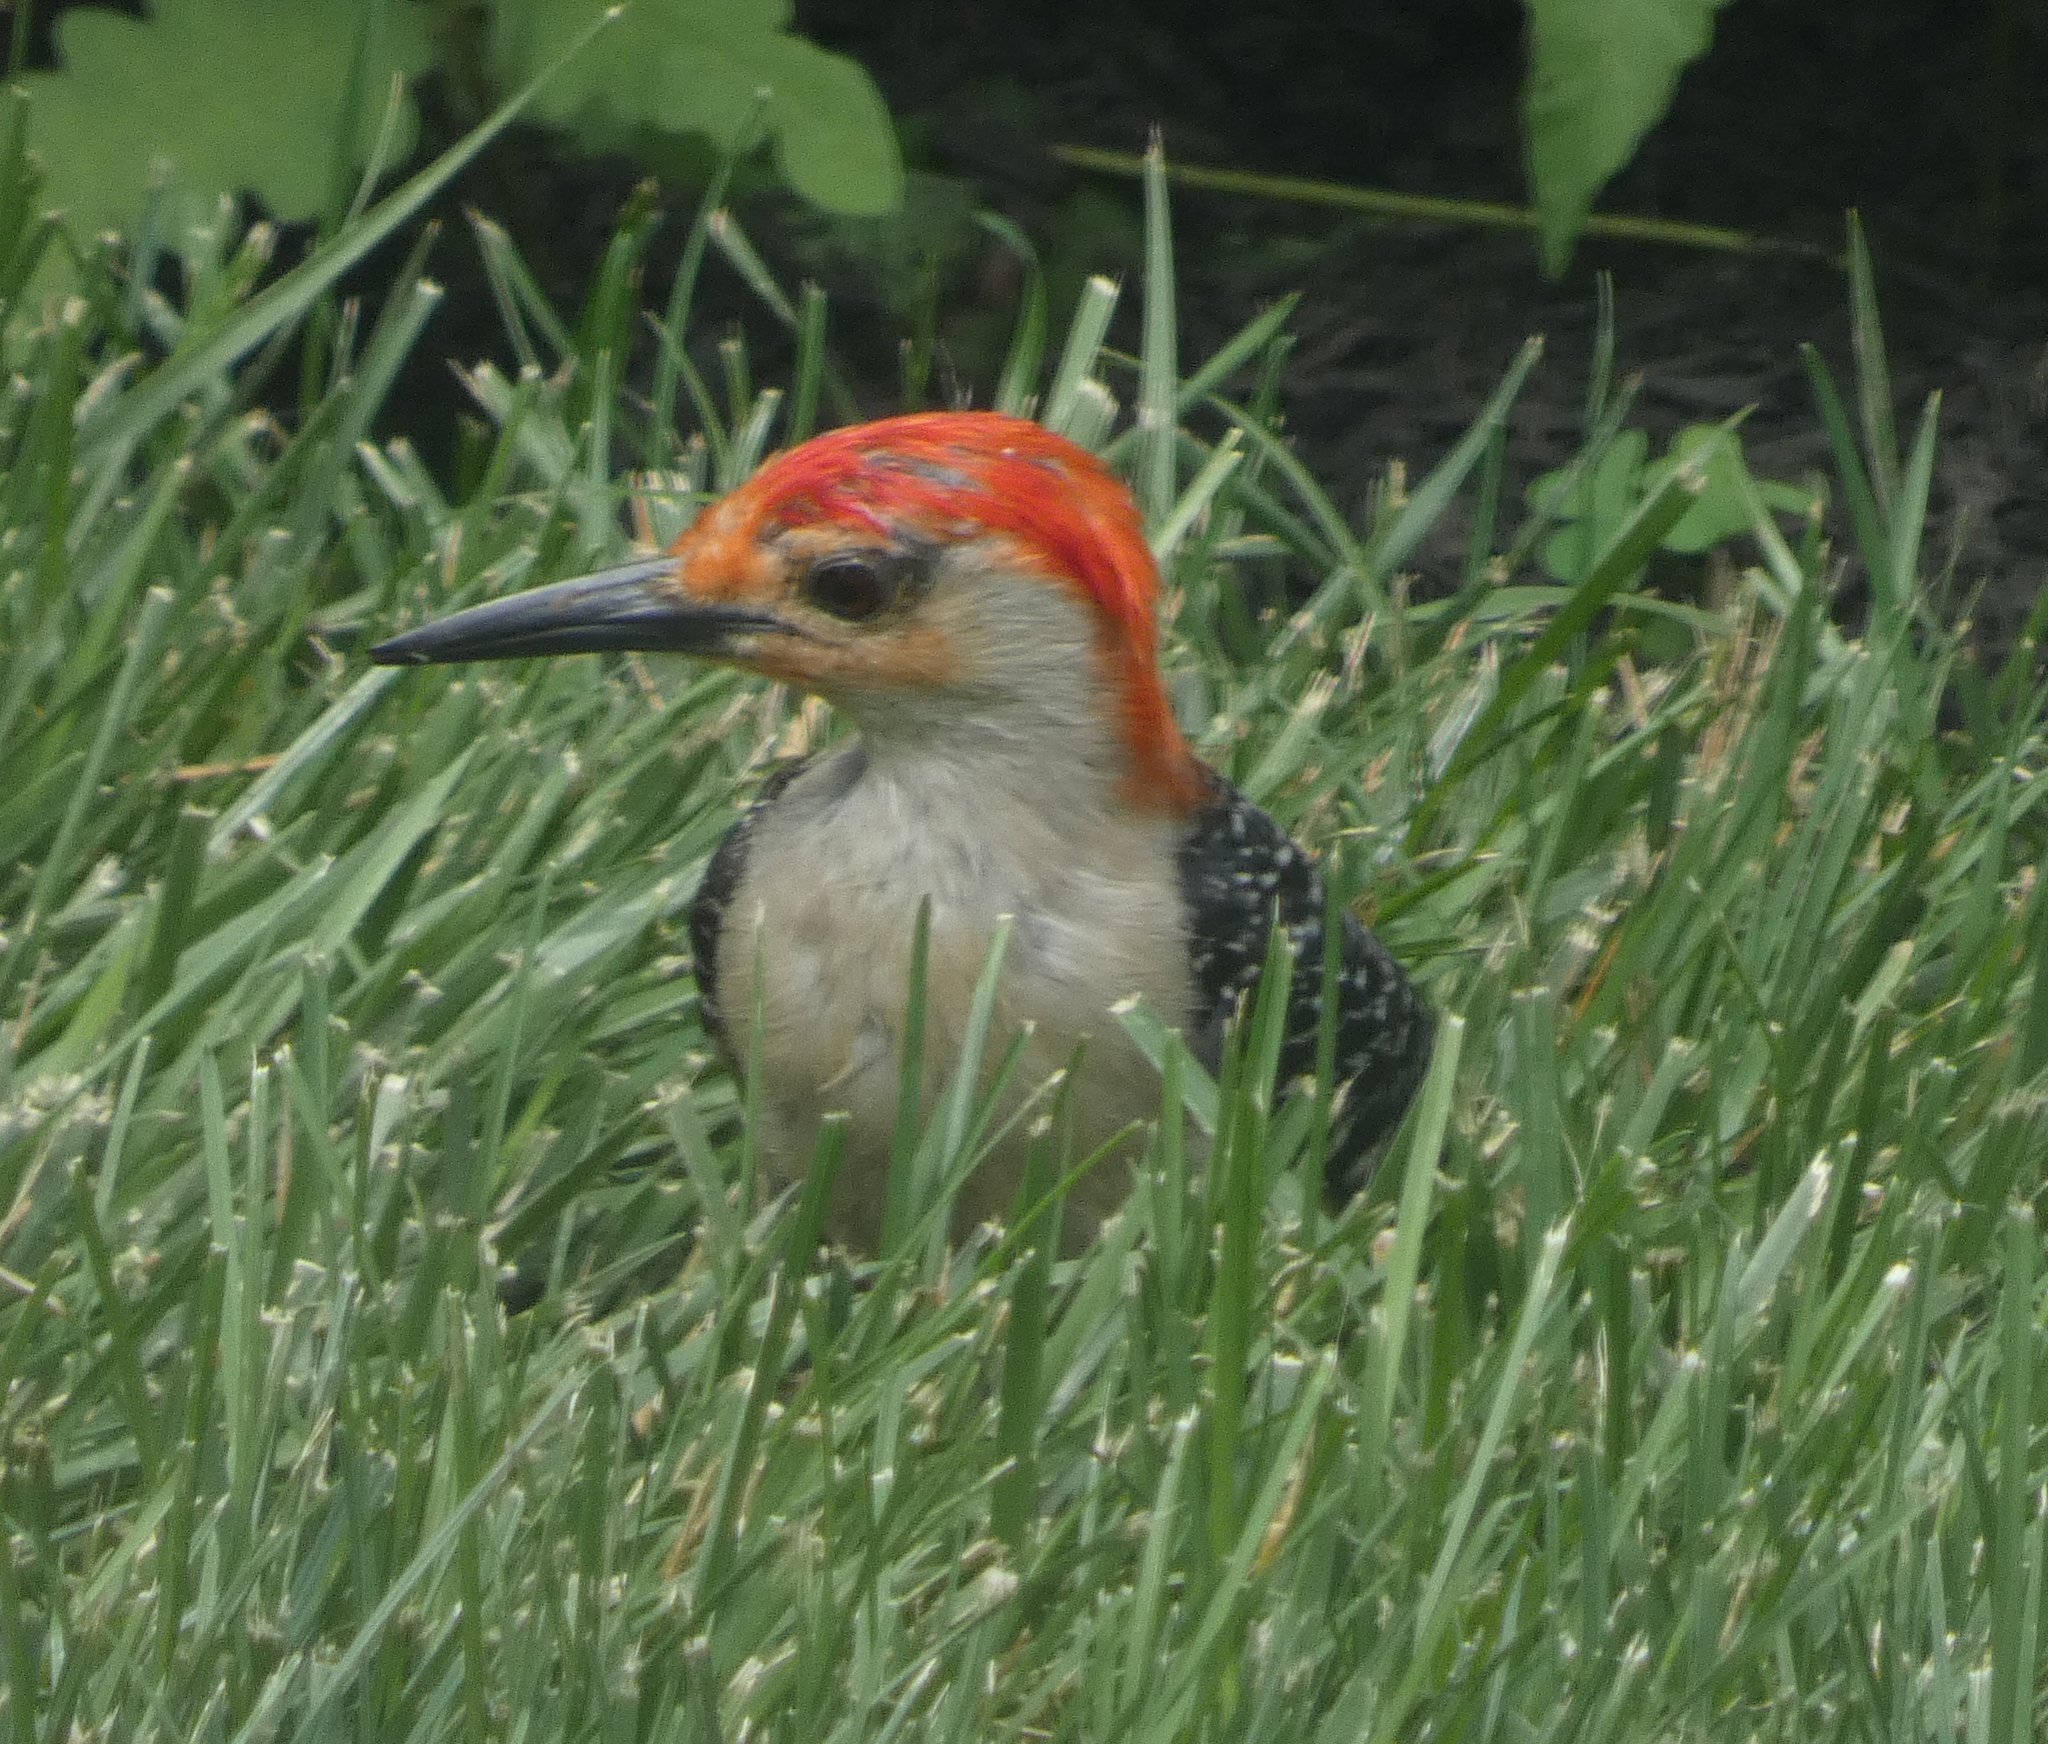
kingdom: Animalia
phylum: Chordata
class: Aves
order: Piciformes
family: Picidae
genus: Melanerpes
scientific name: Melanerpes carolinus
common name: Red-bellied woodpecker
